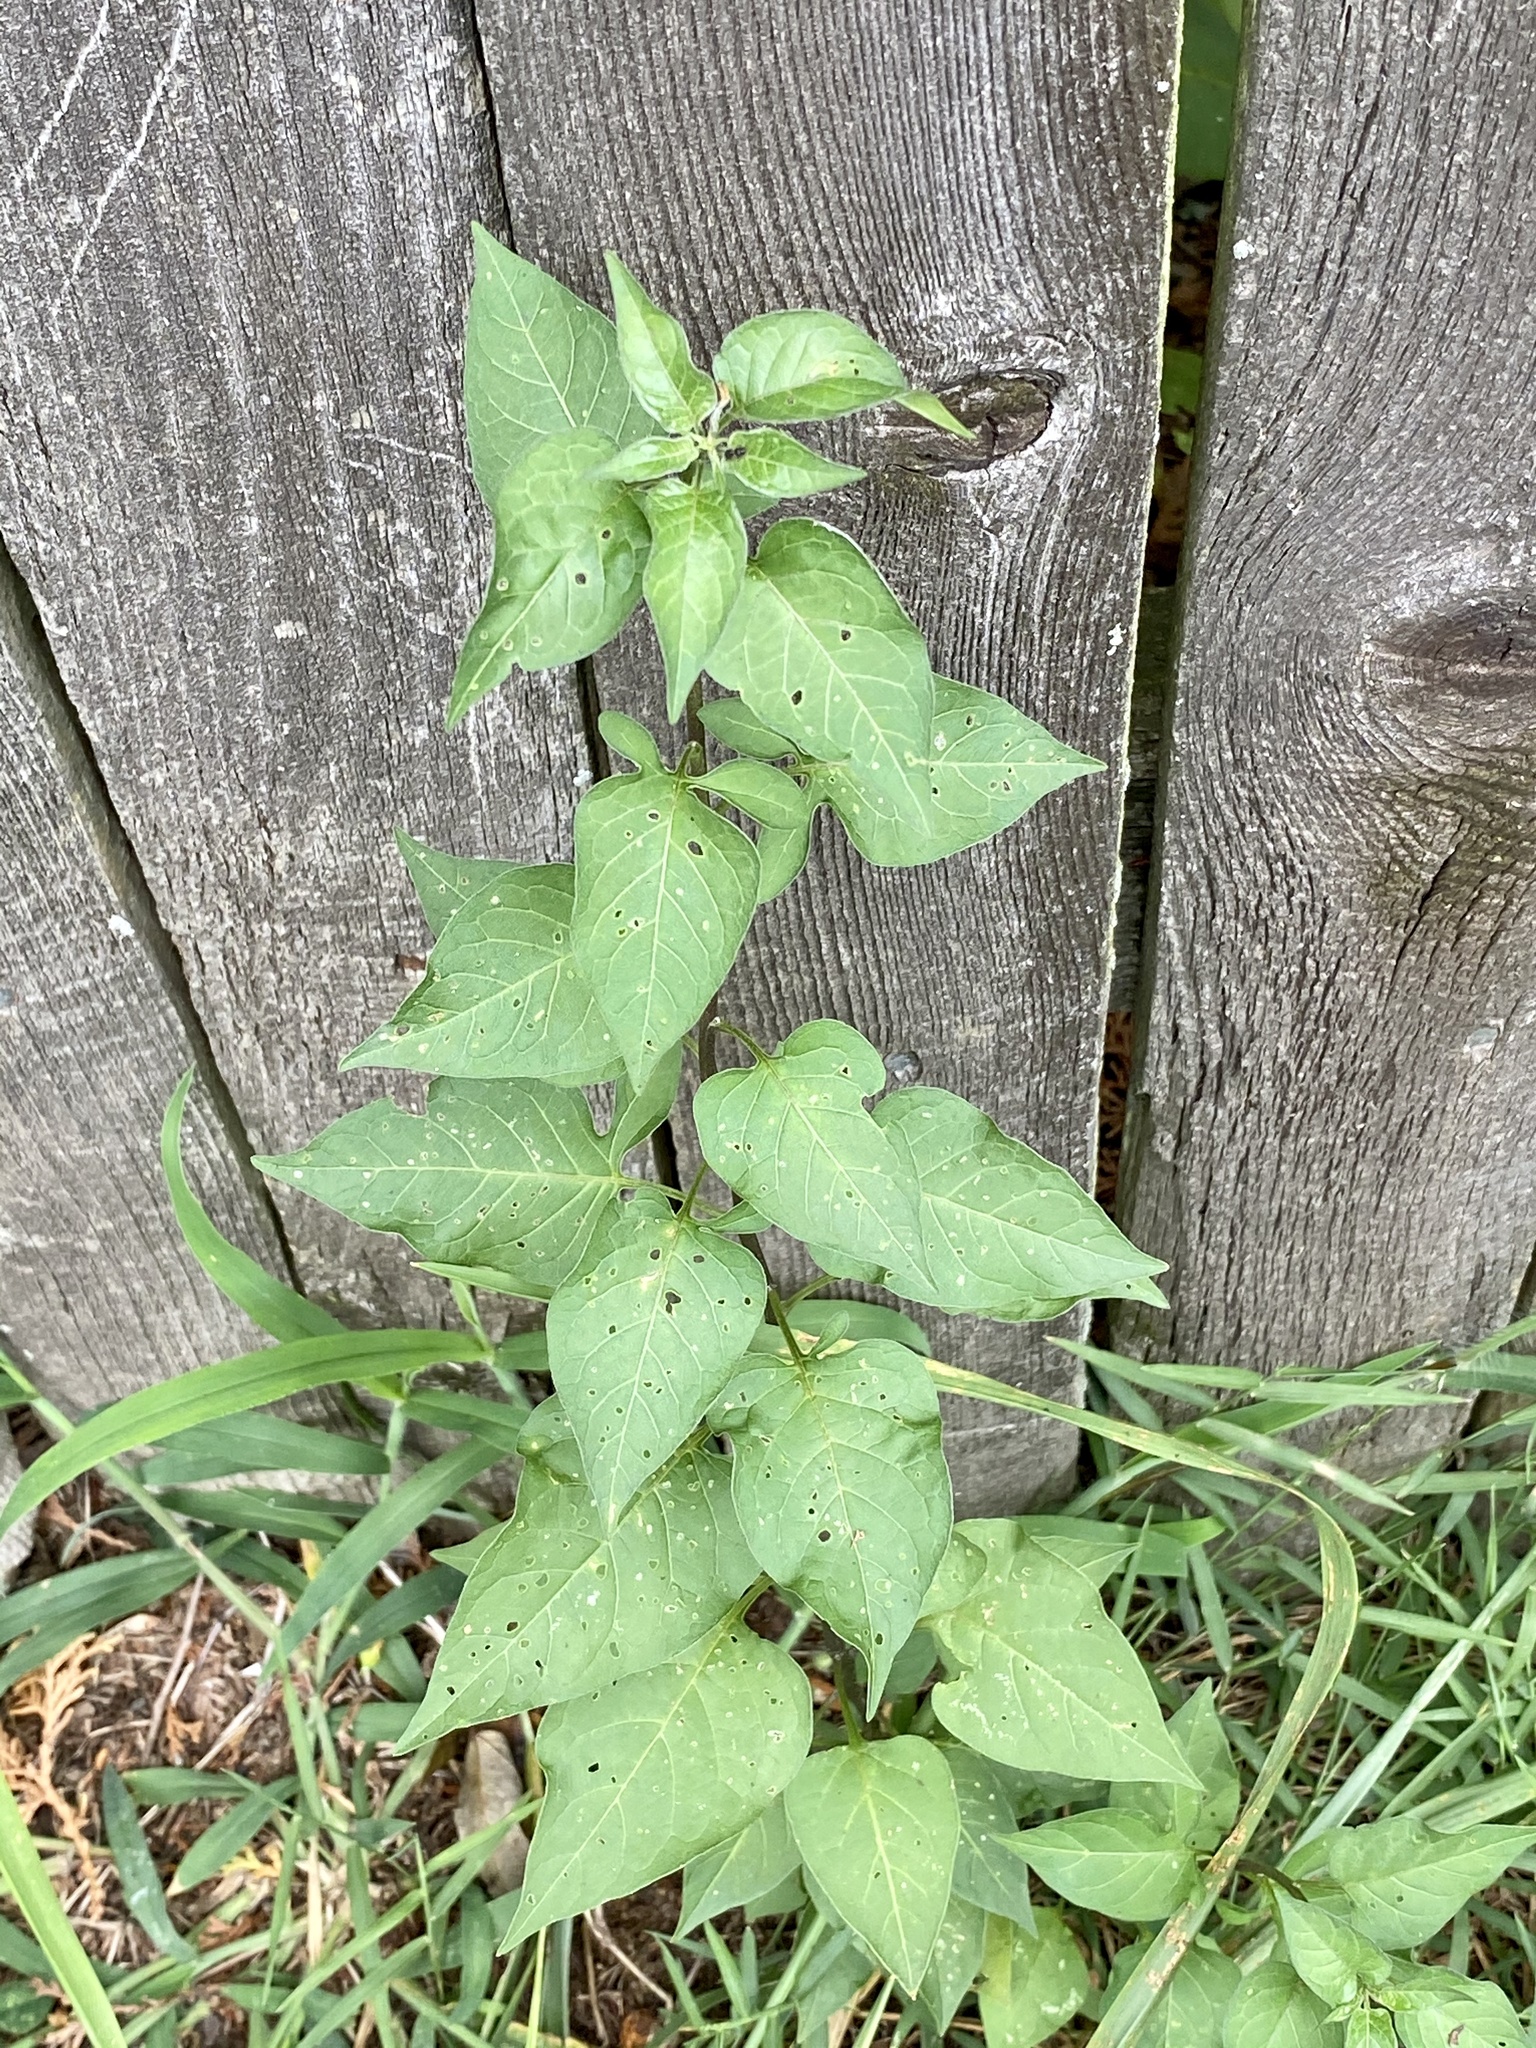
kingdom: Plantae
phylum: Tracheophyta
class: Magnoliopsida
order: Solanales
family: Solanaceae
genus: Solanum
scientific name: Solanum dulcamara
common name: Climbing nightshade
